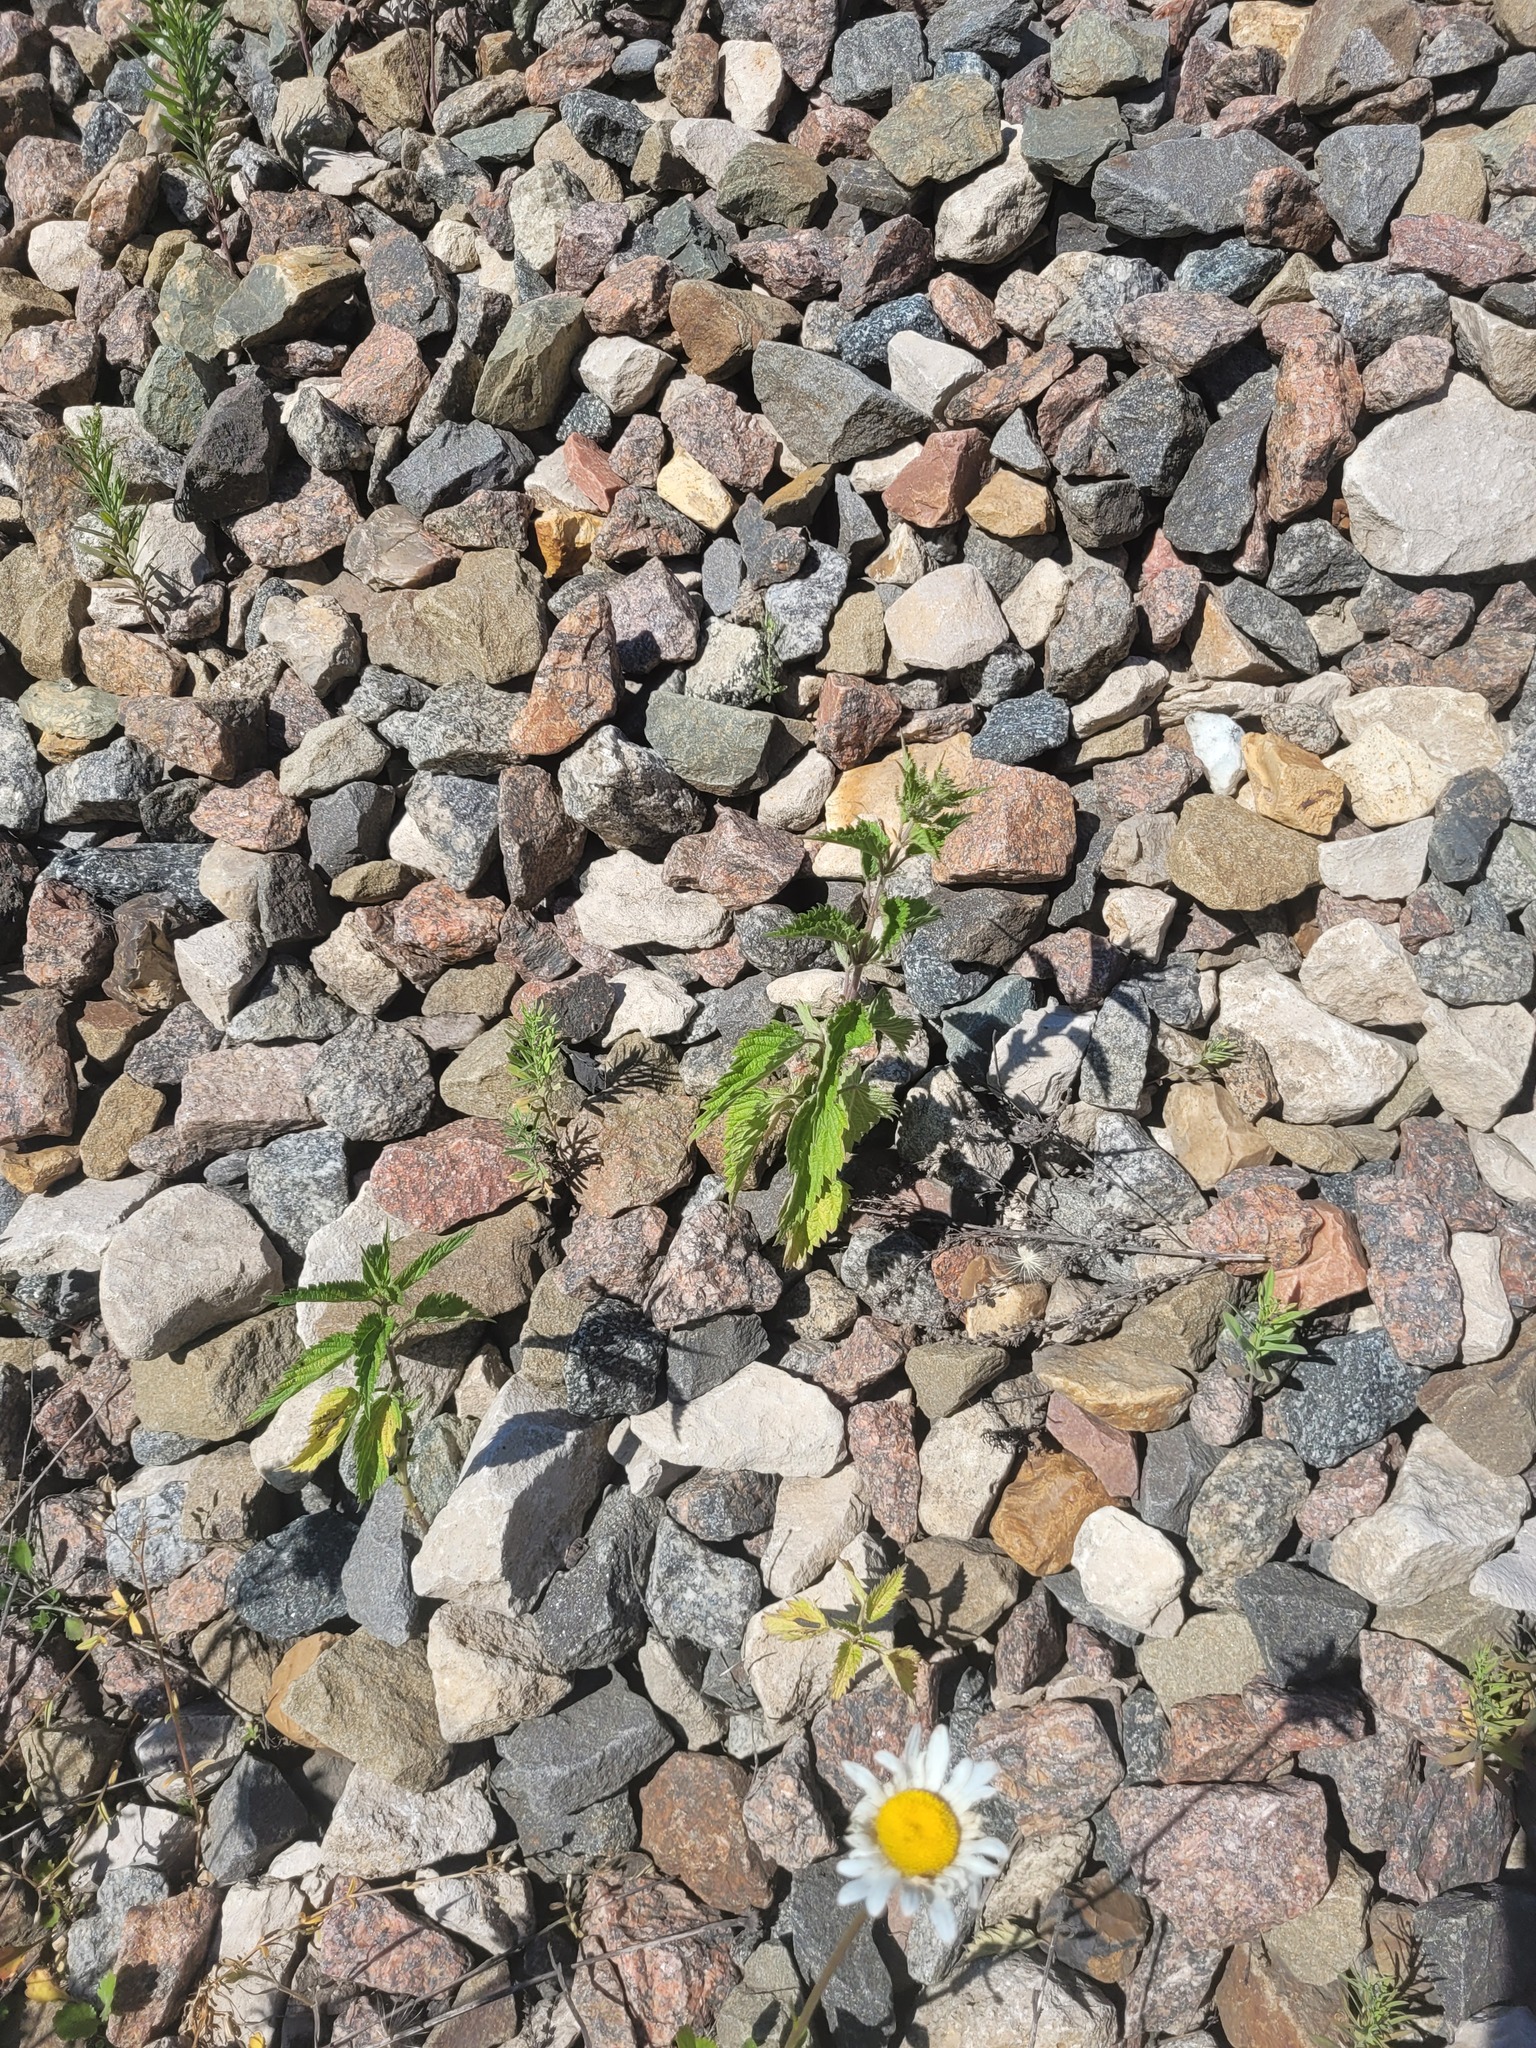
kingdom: Plantae
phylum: Tracheophyta
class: Magnoliopsida
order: Rosales
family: Urticaceae
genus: Urtica
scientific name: Urtica dioica
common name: Common nettle
